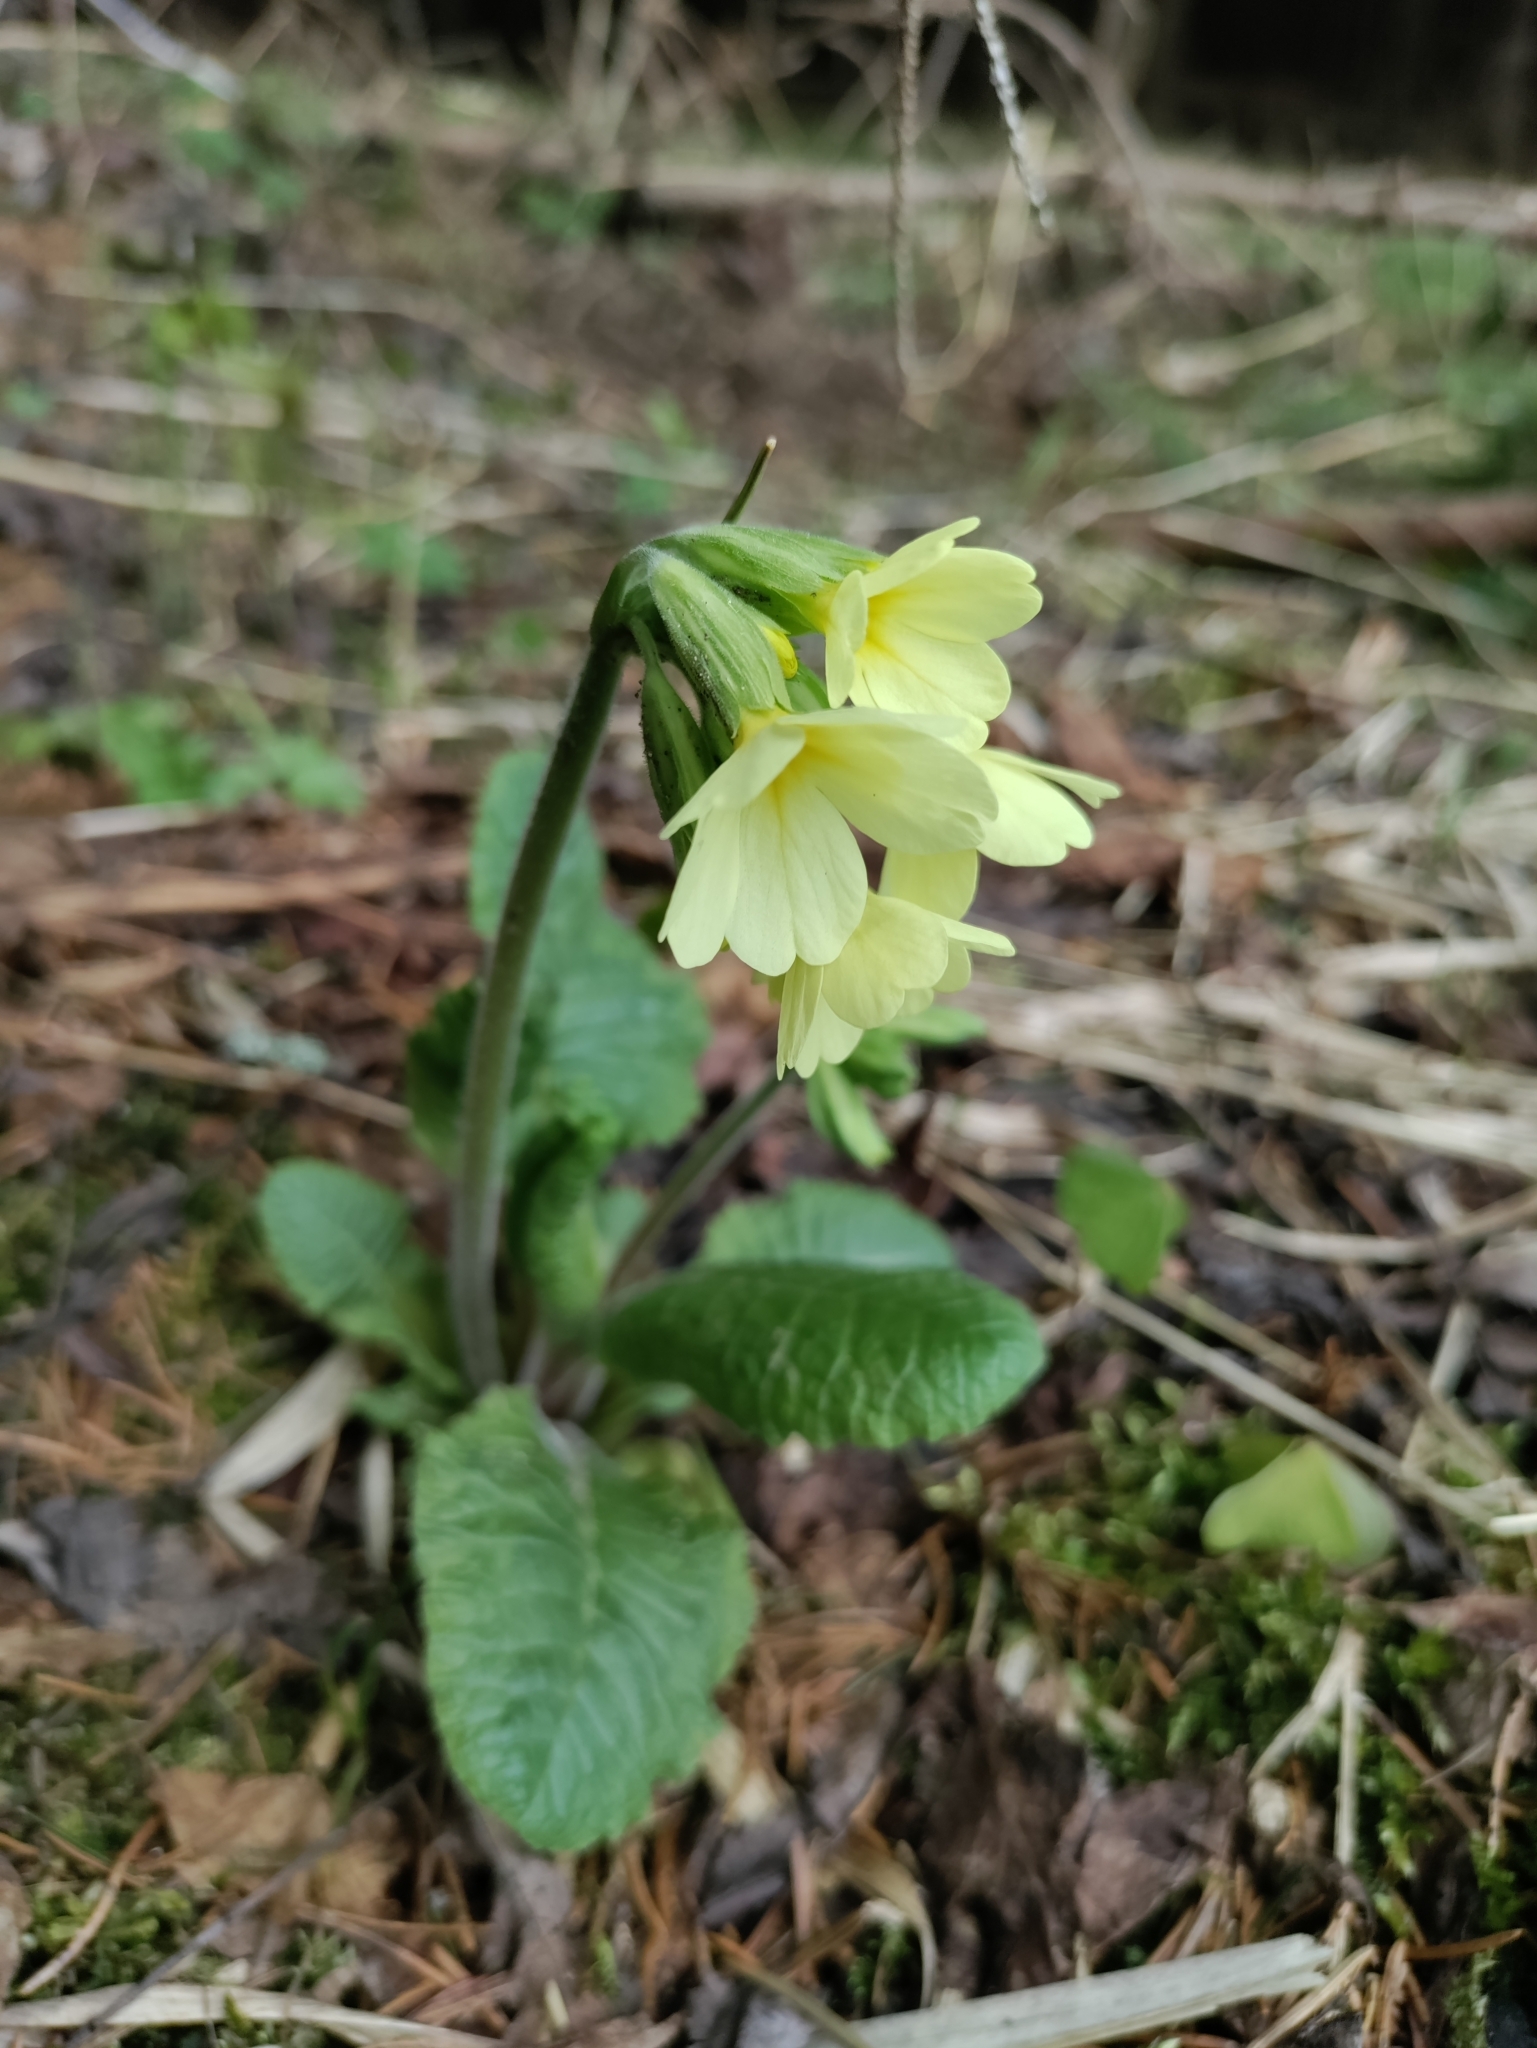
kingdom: Plantae
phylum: Tracheophyta
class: Magnoliopsida
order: Ericales
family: Primulaceae
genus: Primula
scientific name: Primula elatior
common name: Oxlip
